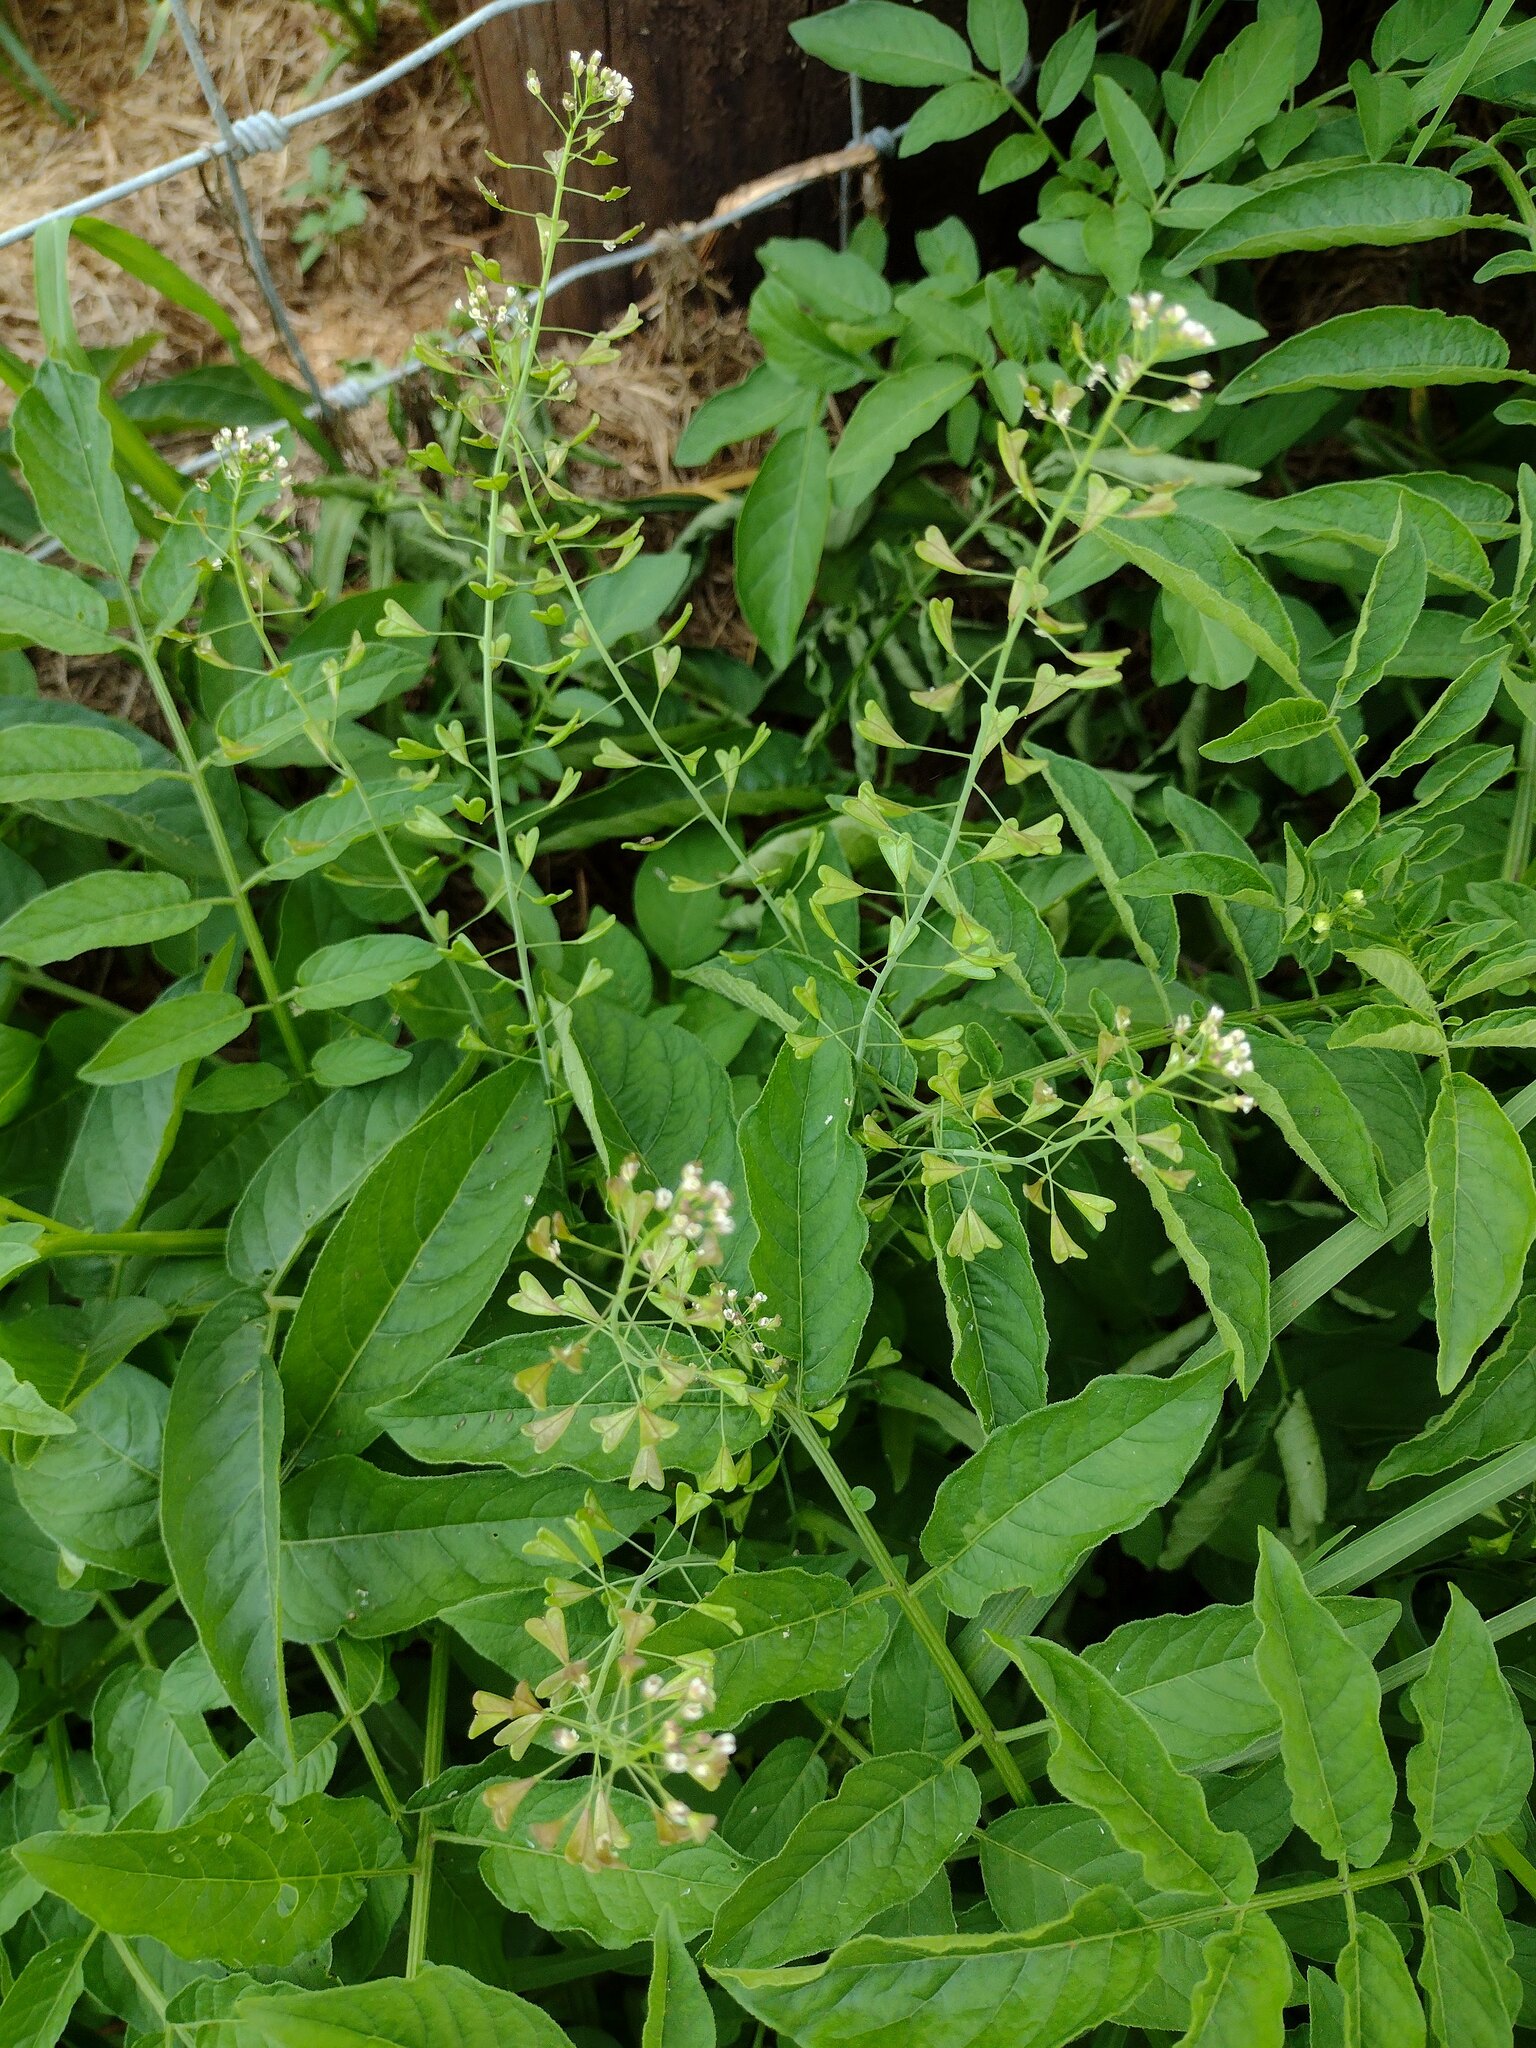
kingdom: Plantae
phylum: Tracheophyta
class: Magnoliopsida
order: Brassicales
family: Brassicaceae
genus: Capsella
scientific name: Capsella bursa-pastoris
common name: Shepherd's purse
